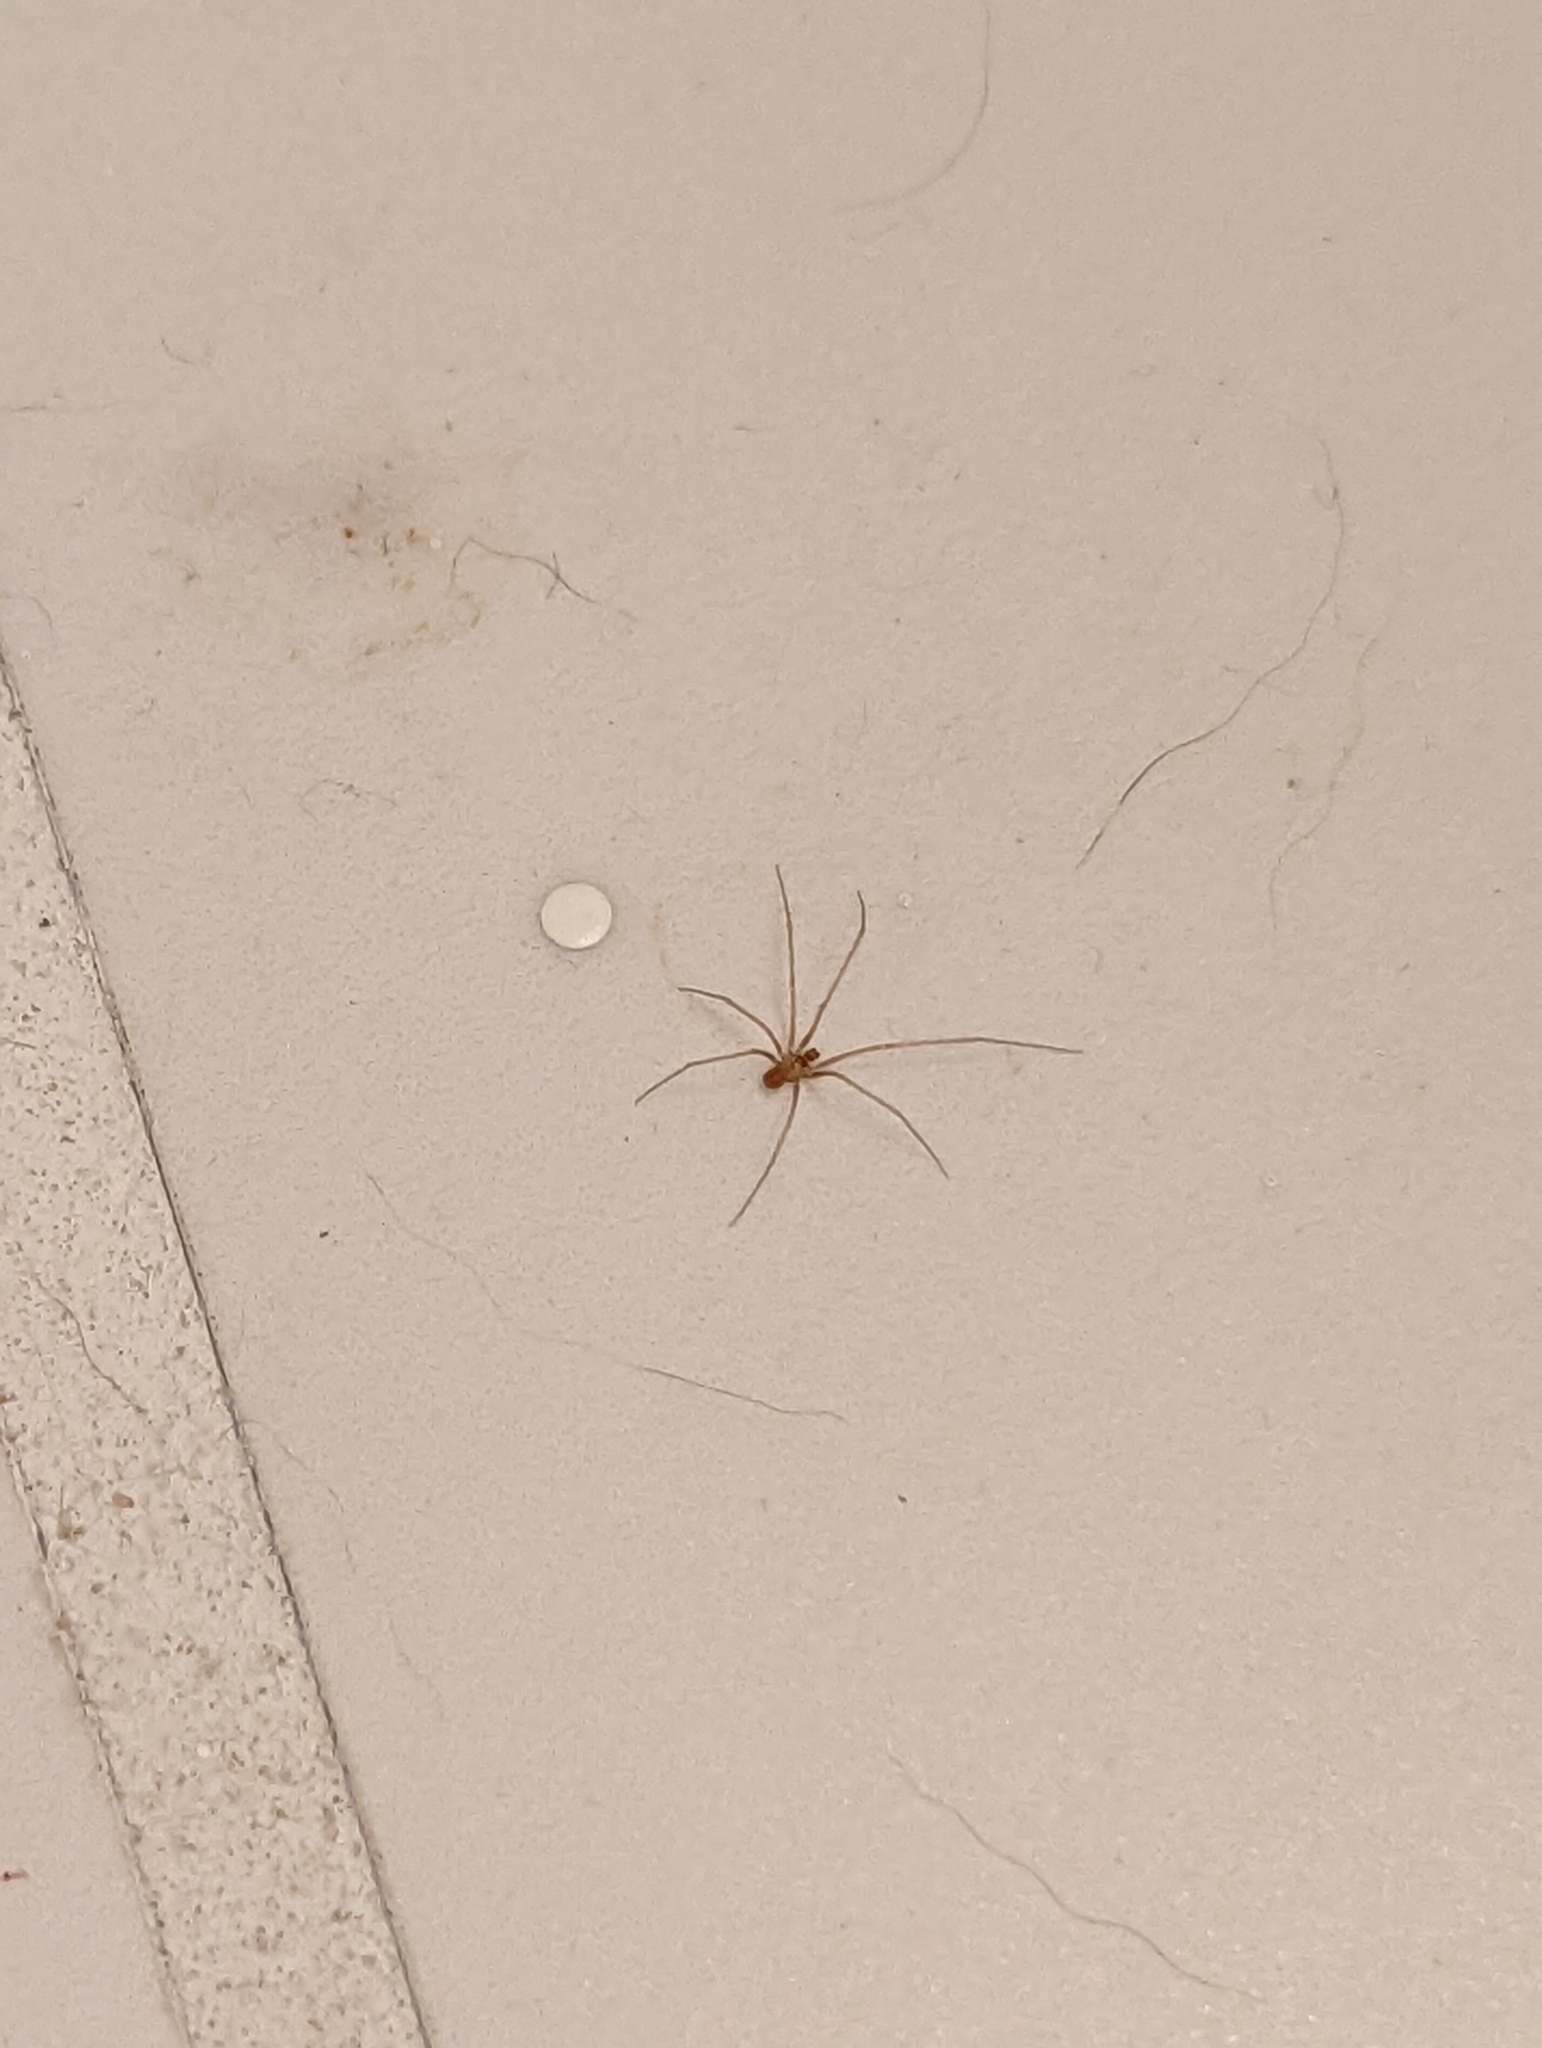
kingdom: Animalia
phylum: Arthropoda
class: Arachnida
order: Araneae
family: Pholcidae
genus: Spermophora
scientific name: Spermophora senoculata
